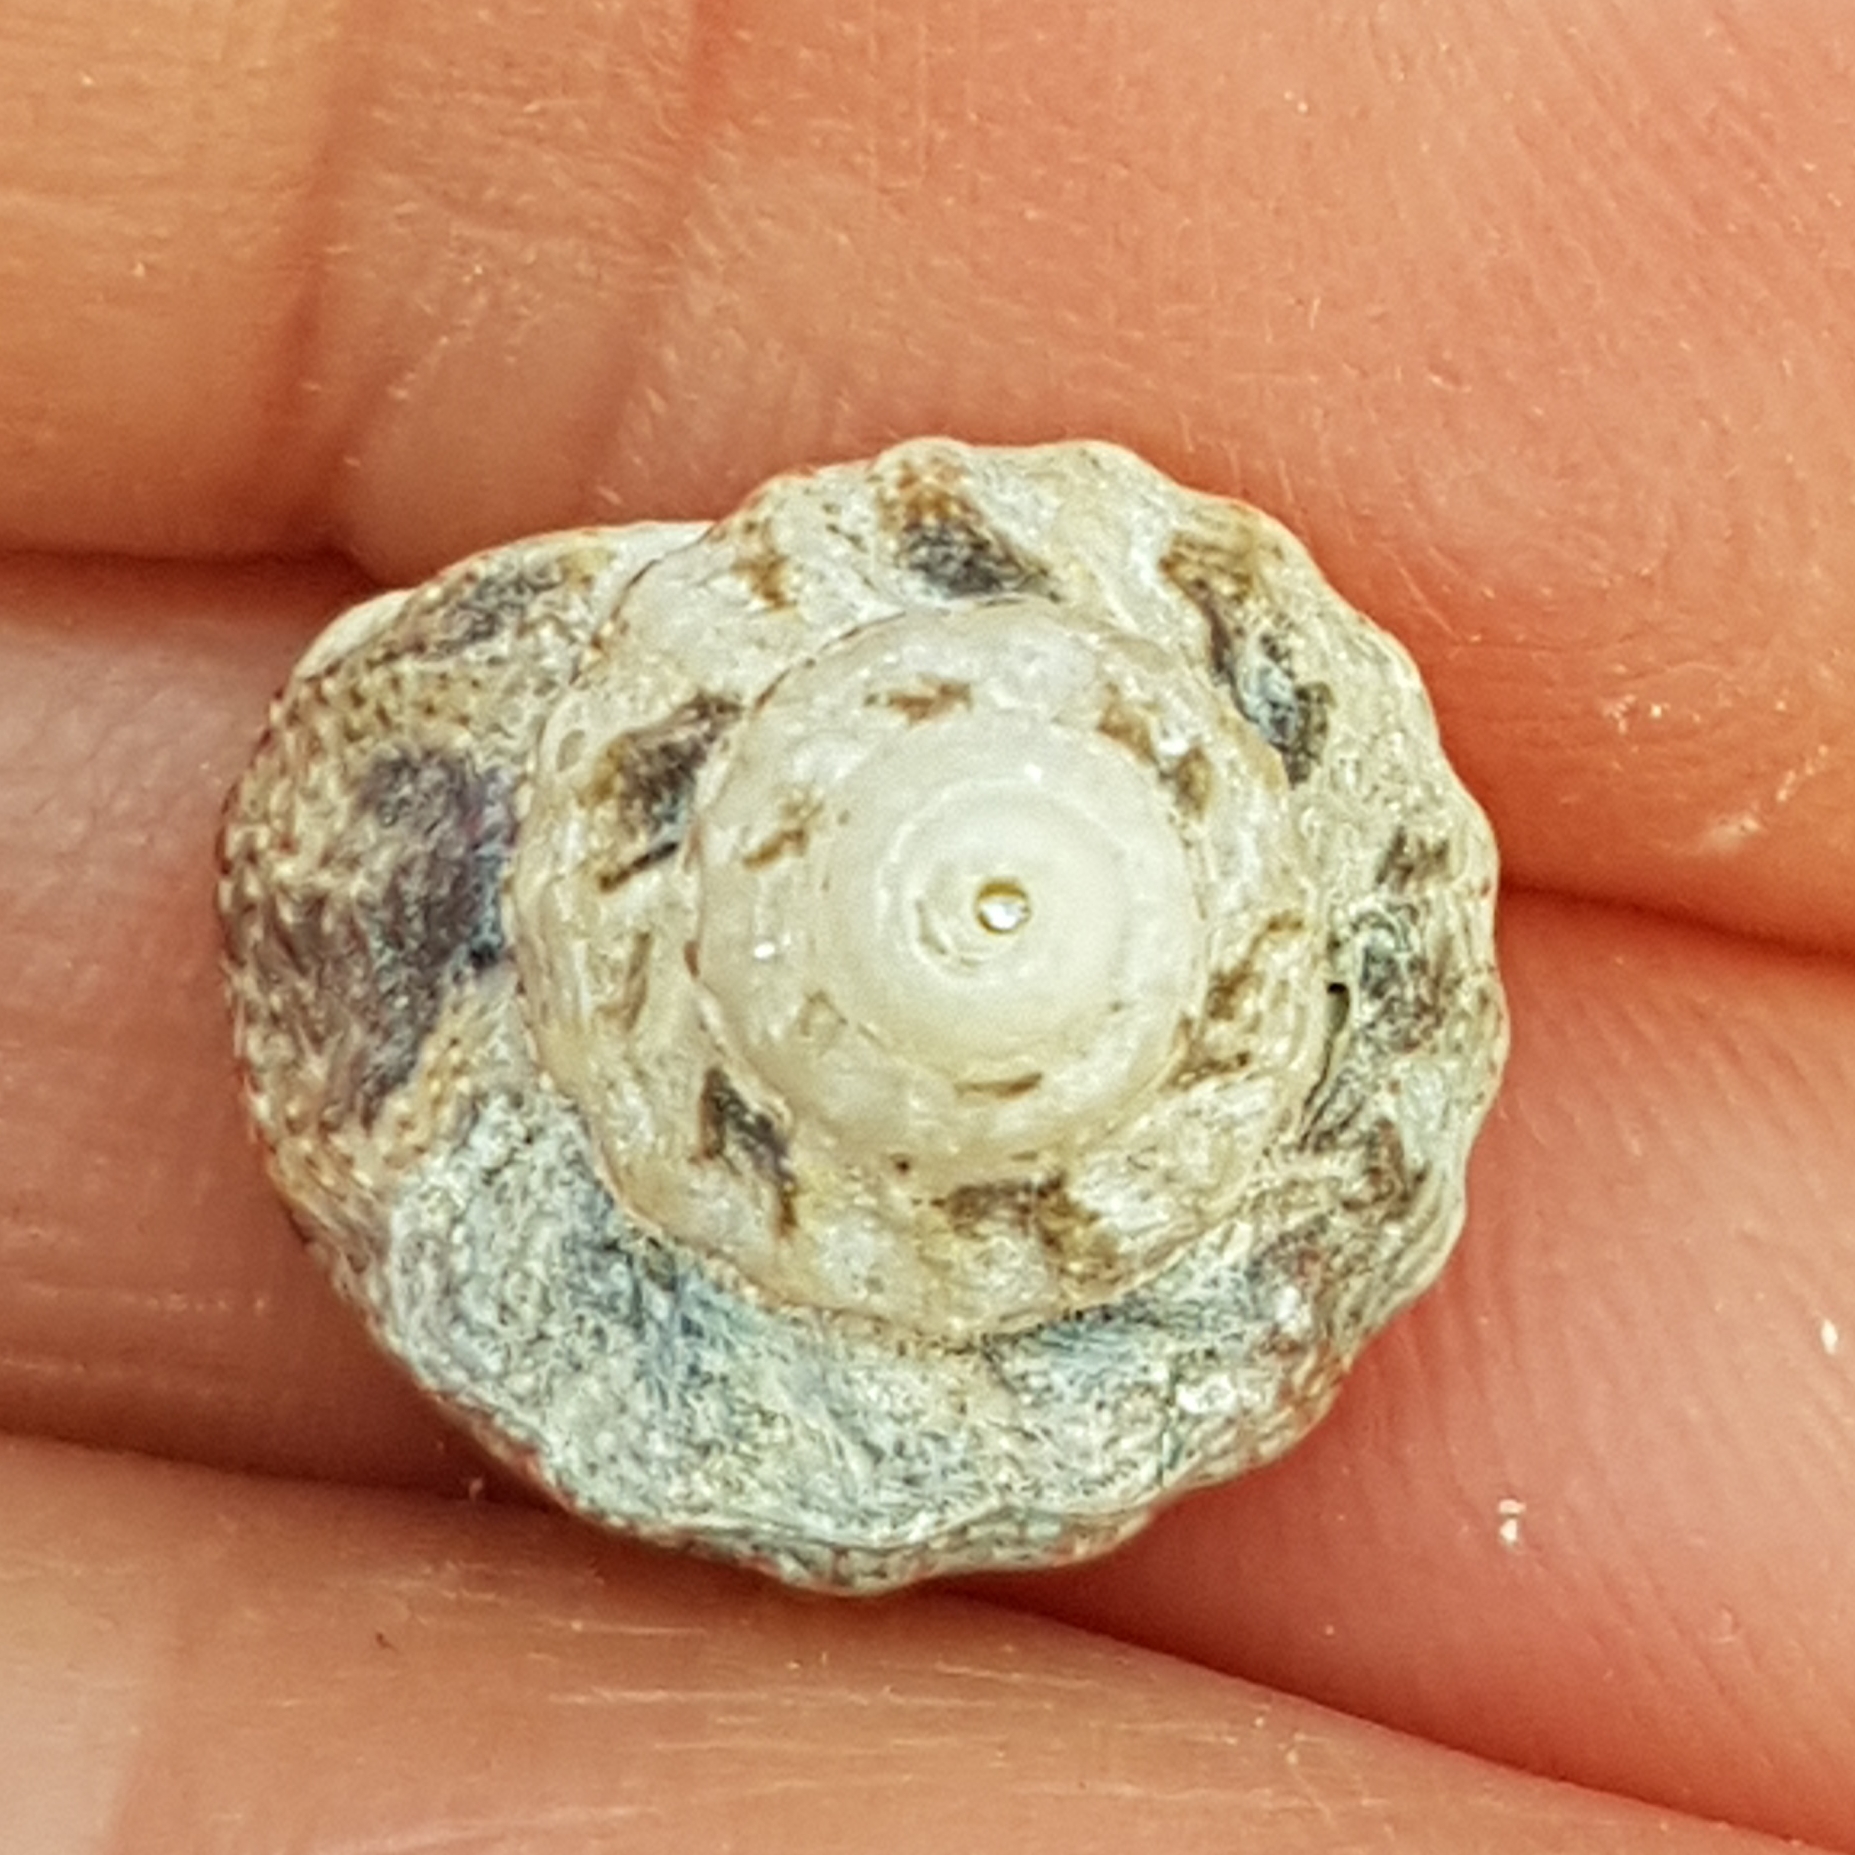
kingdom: Animalia
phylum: Mollusca
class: Gastropoda
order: Trochida
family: Trochidae
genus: Gibbula
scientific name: Gibbula fanulum
